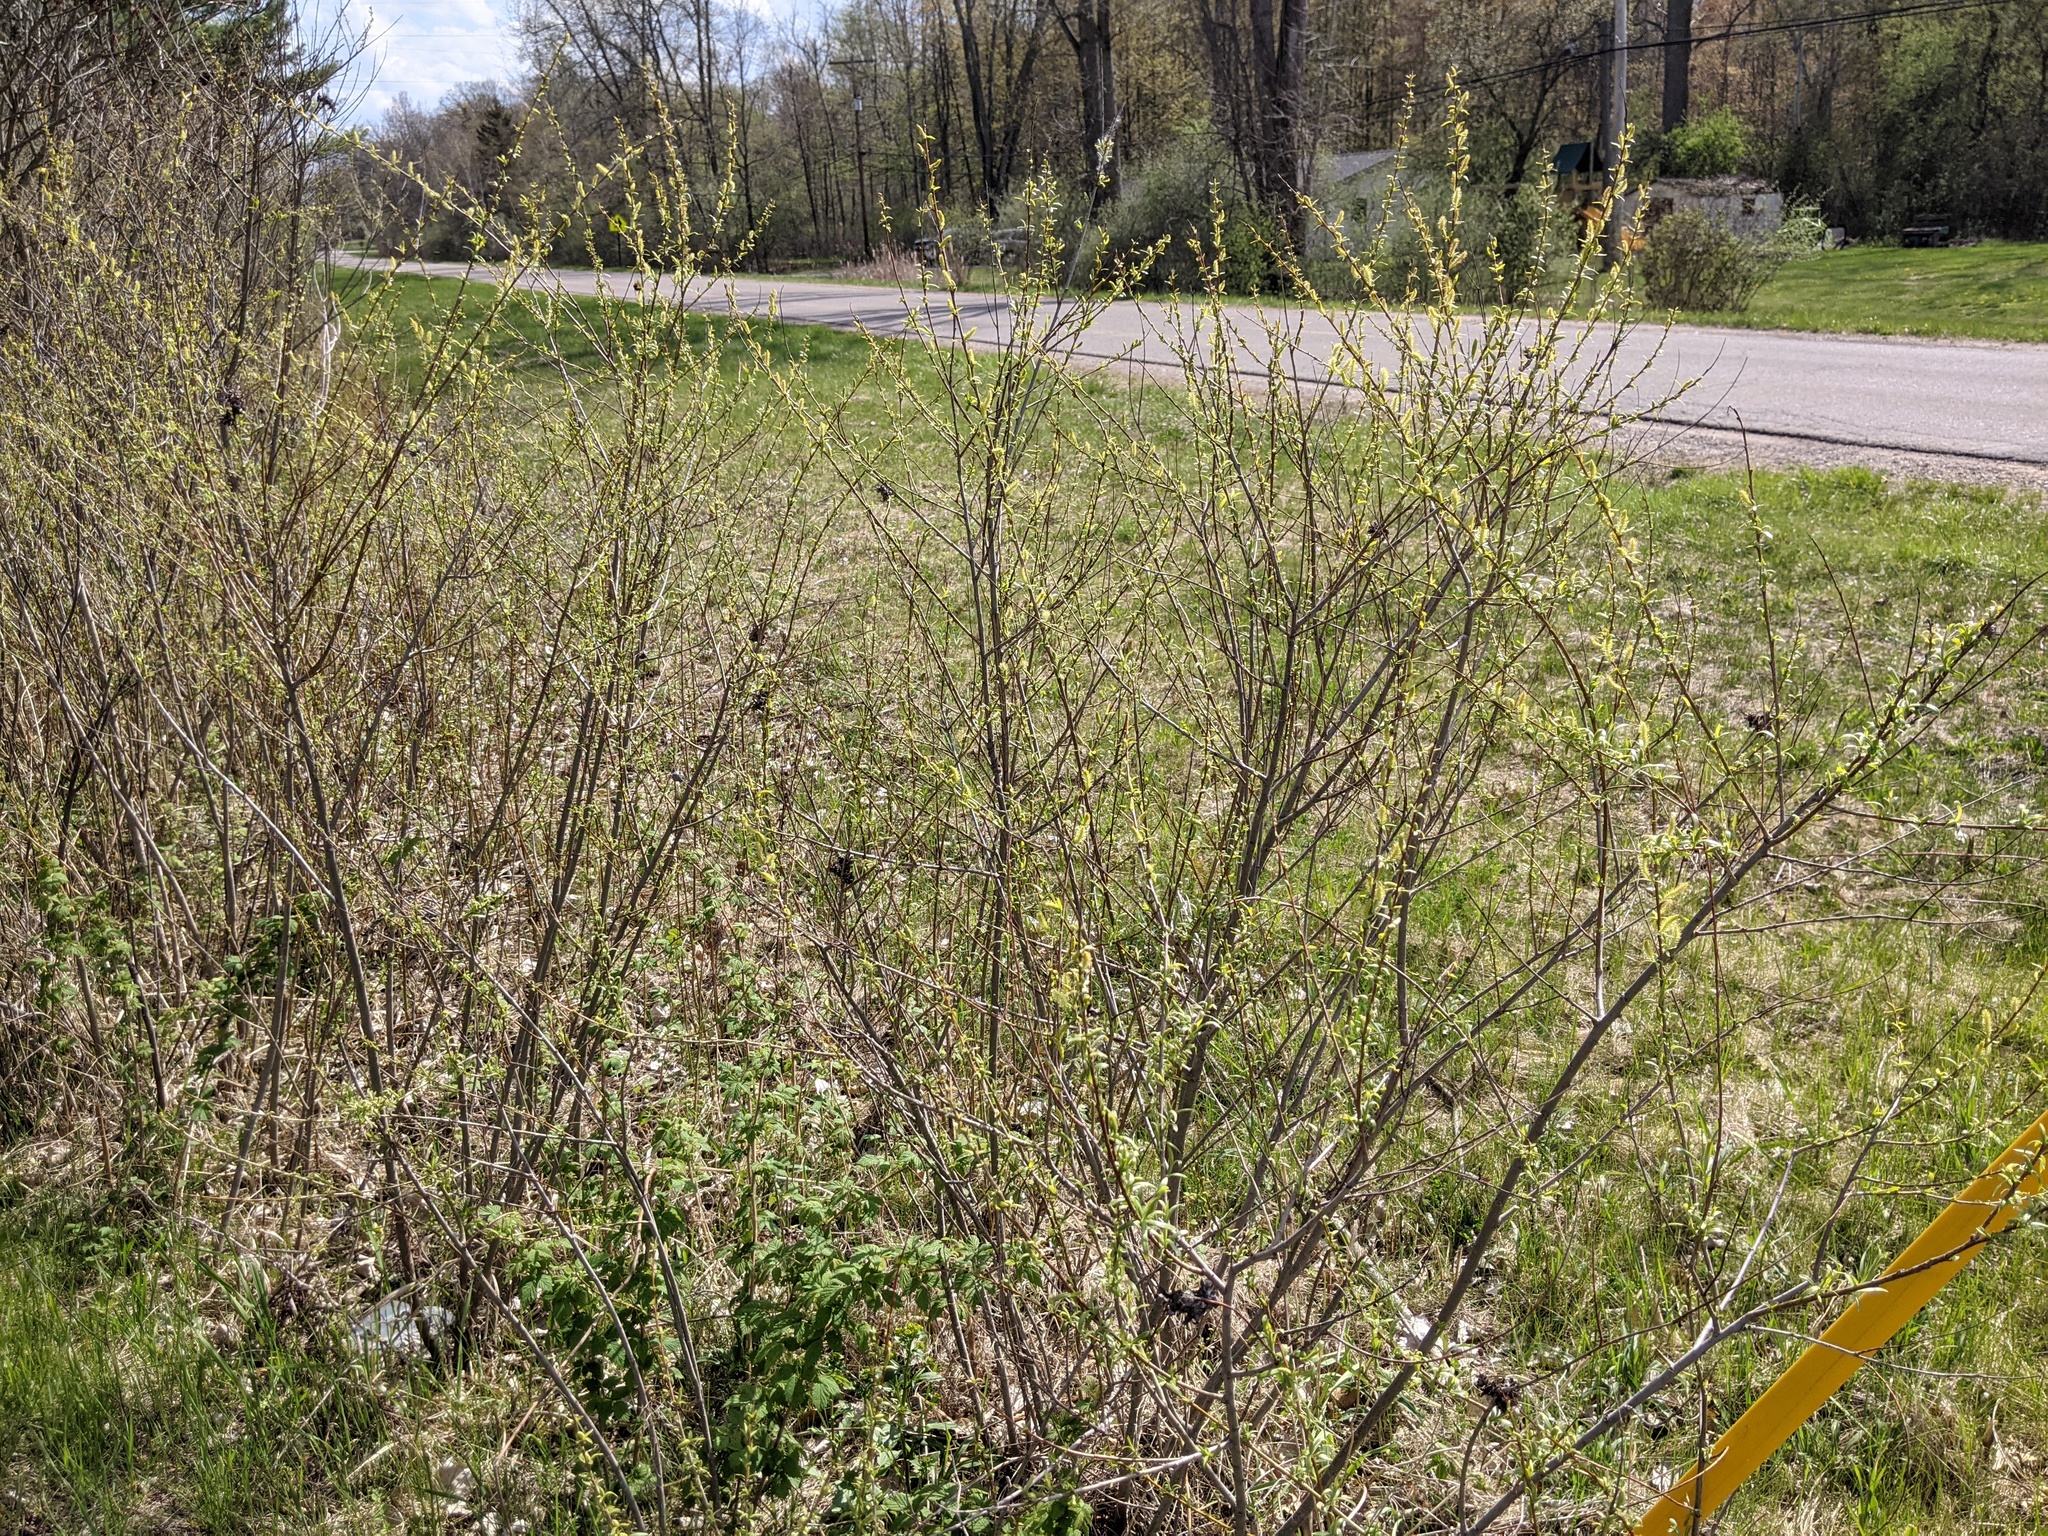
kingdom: Plantae
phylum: Tracheophyta
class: Magnoliopsida
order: Malpighiales
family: Salicaceae
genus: Salix
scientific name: Salix interior
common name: Sandbar willow
